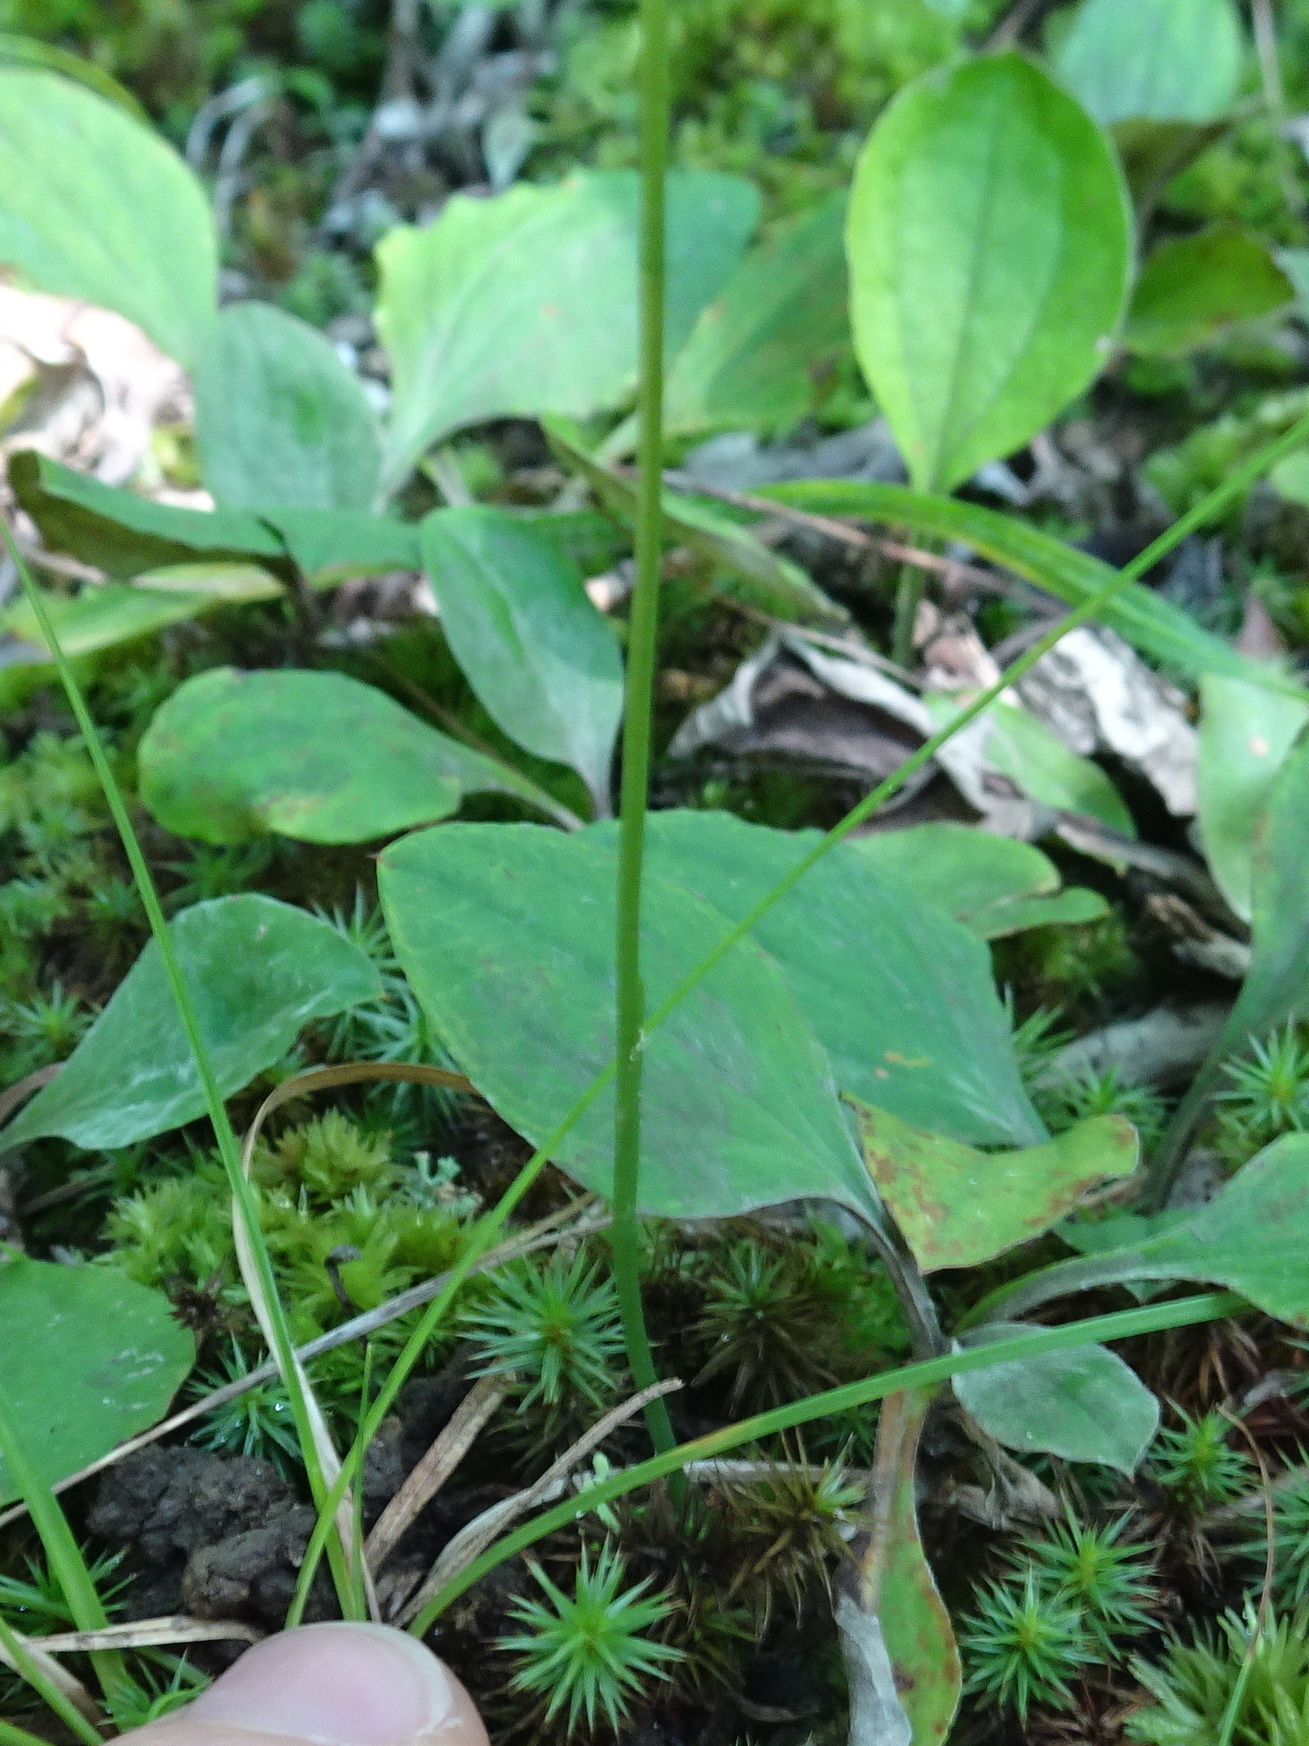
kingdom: Plantae
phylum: Tracheophyta
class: Liliopsida
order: Asparagales
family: Orchidaceae
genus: Spiranthes
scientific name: Spiranthes tuberosa
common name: Little ladies'-tresses
